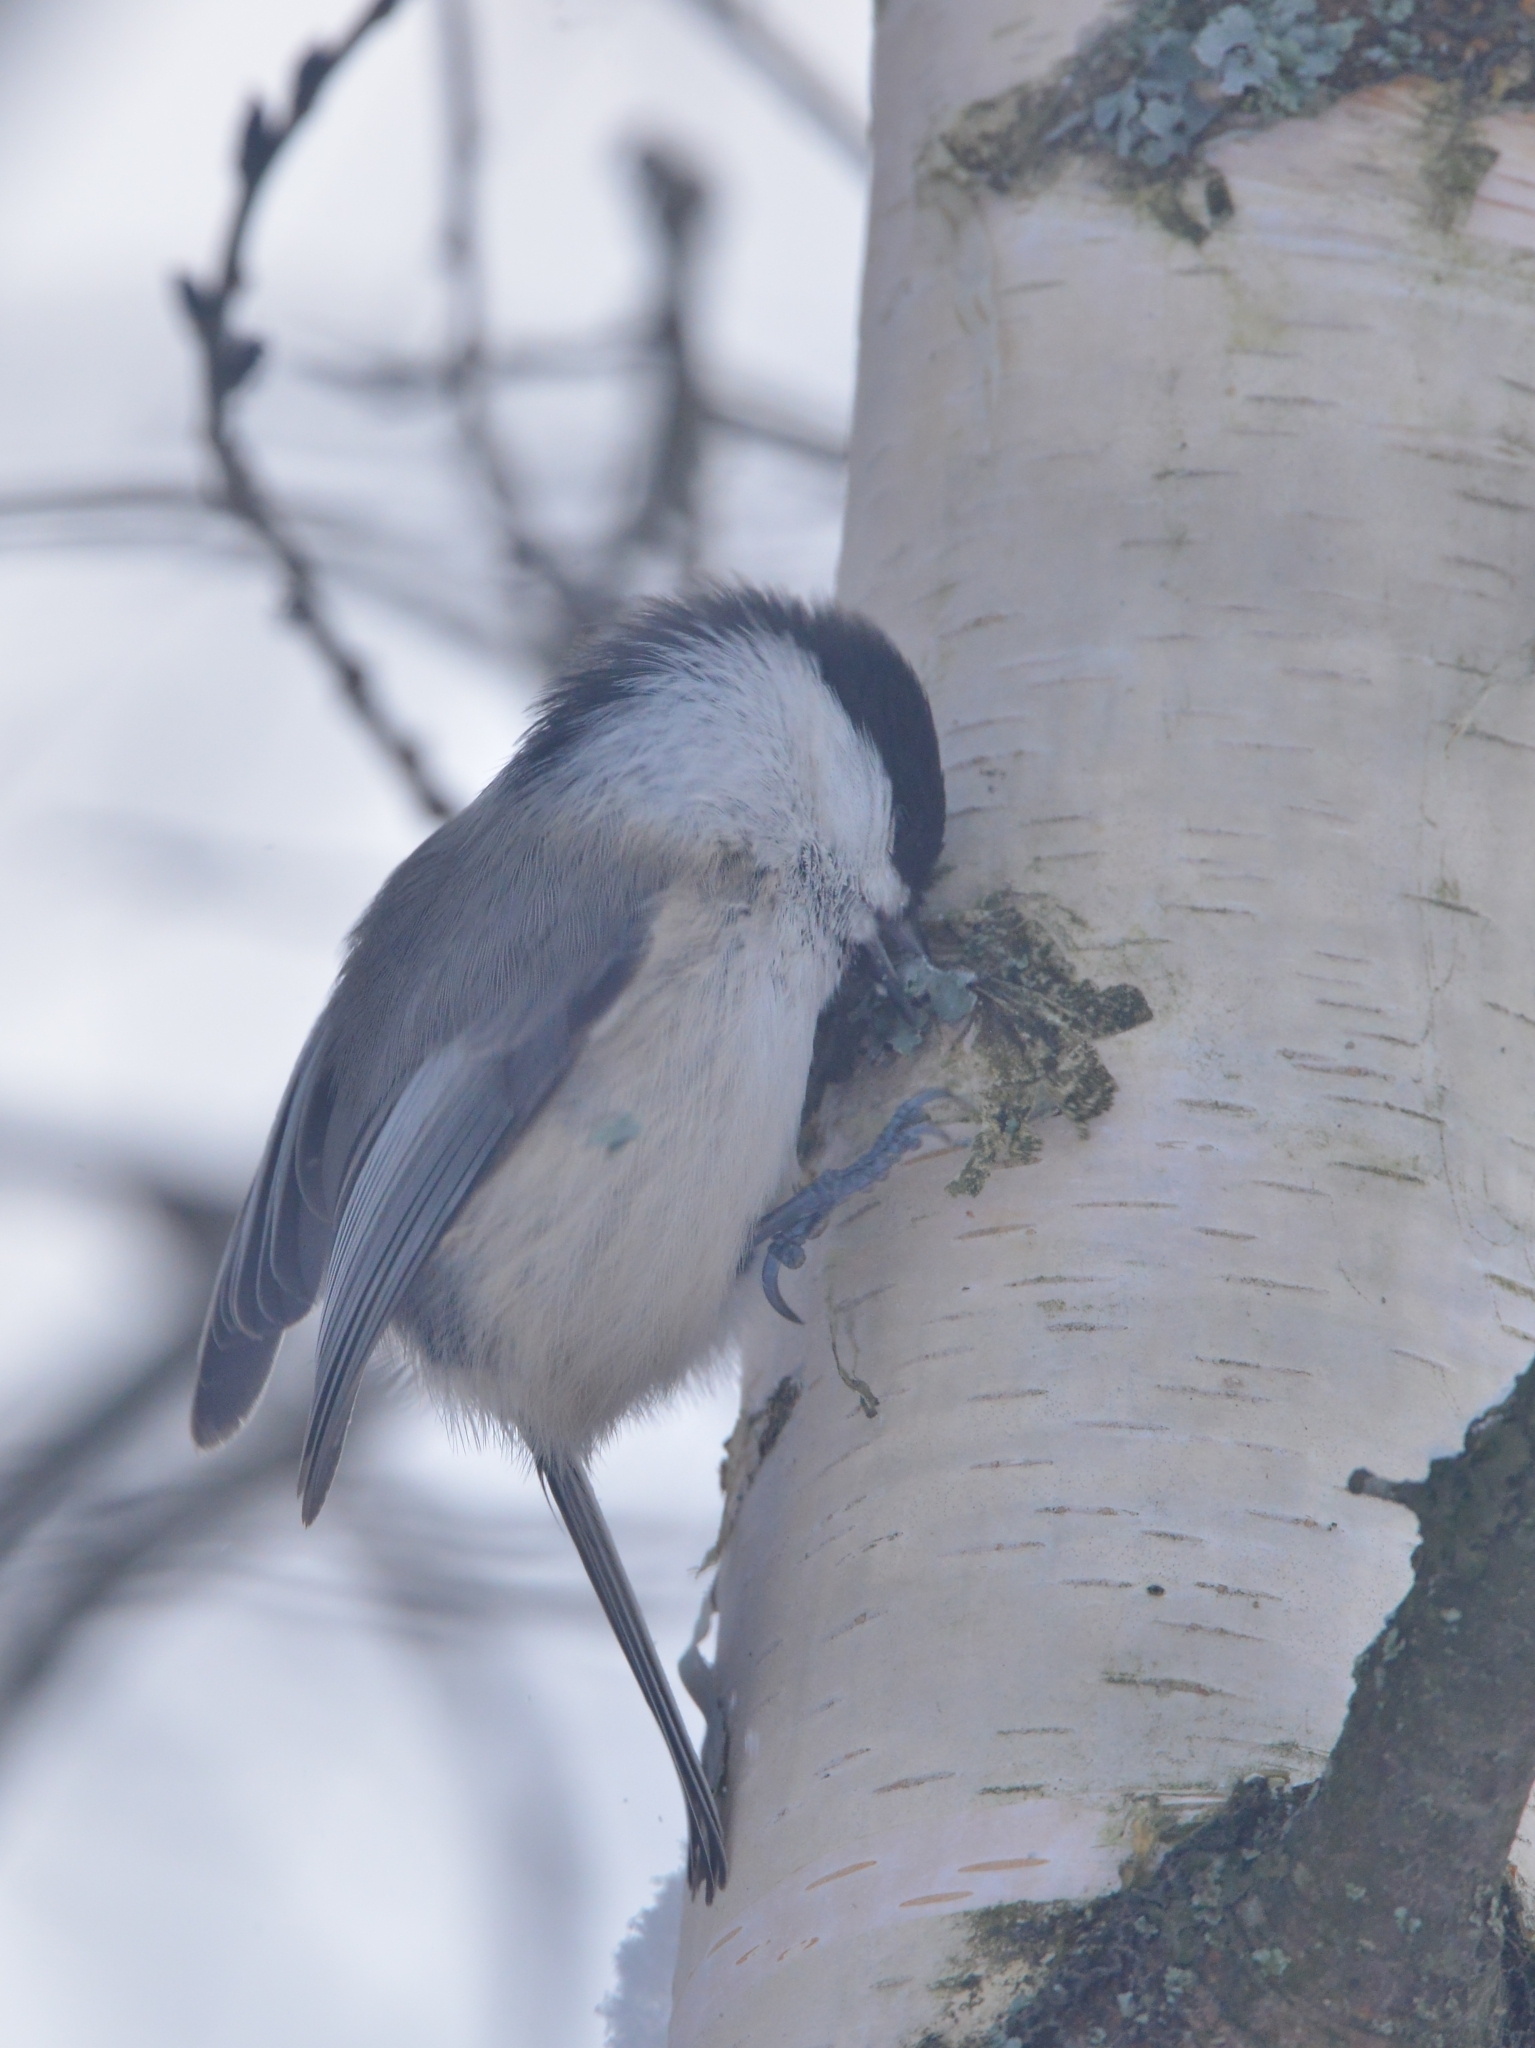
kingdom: Animalia
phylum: Chordata
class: Aves
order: Passeriformes
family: Paridae
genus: Poecile
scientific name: Poecile montanus
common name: Willow tit
